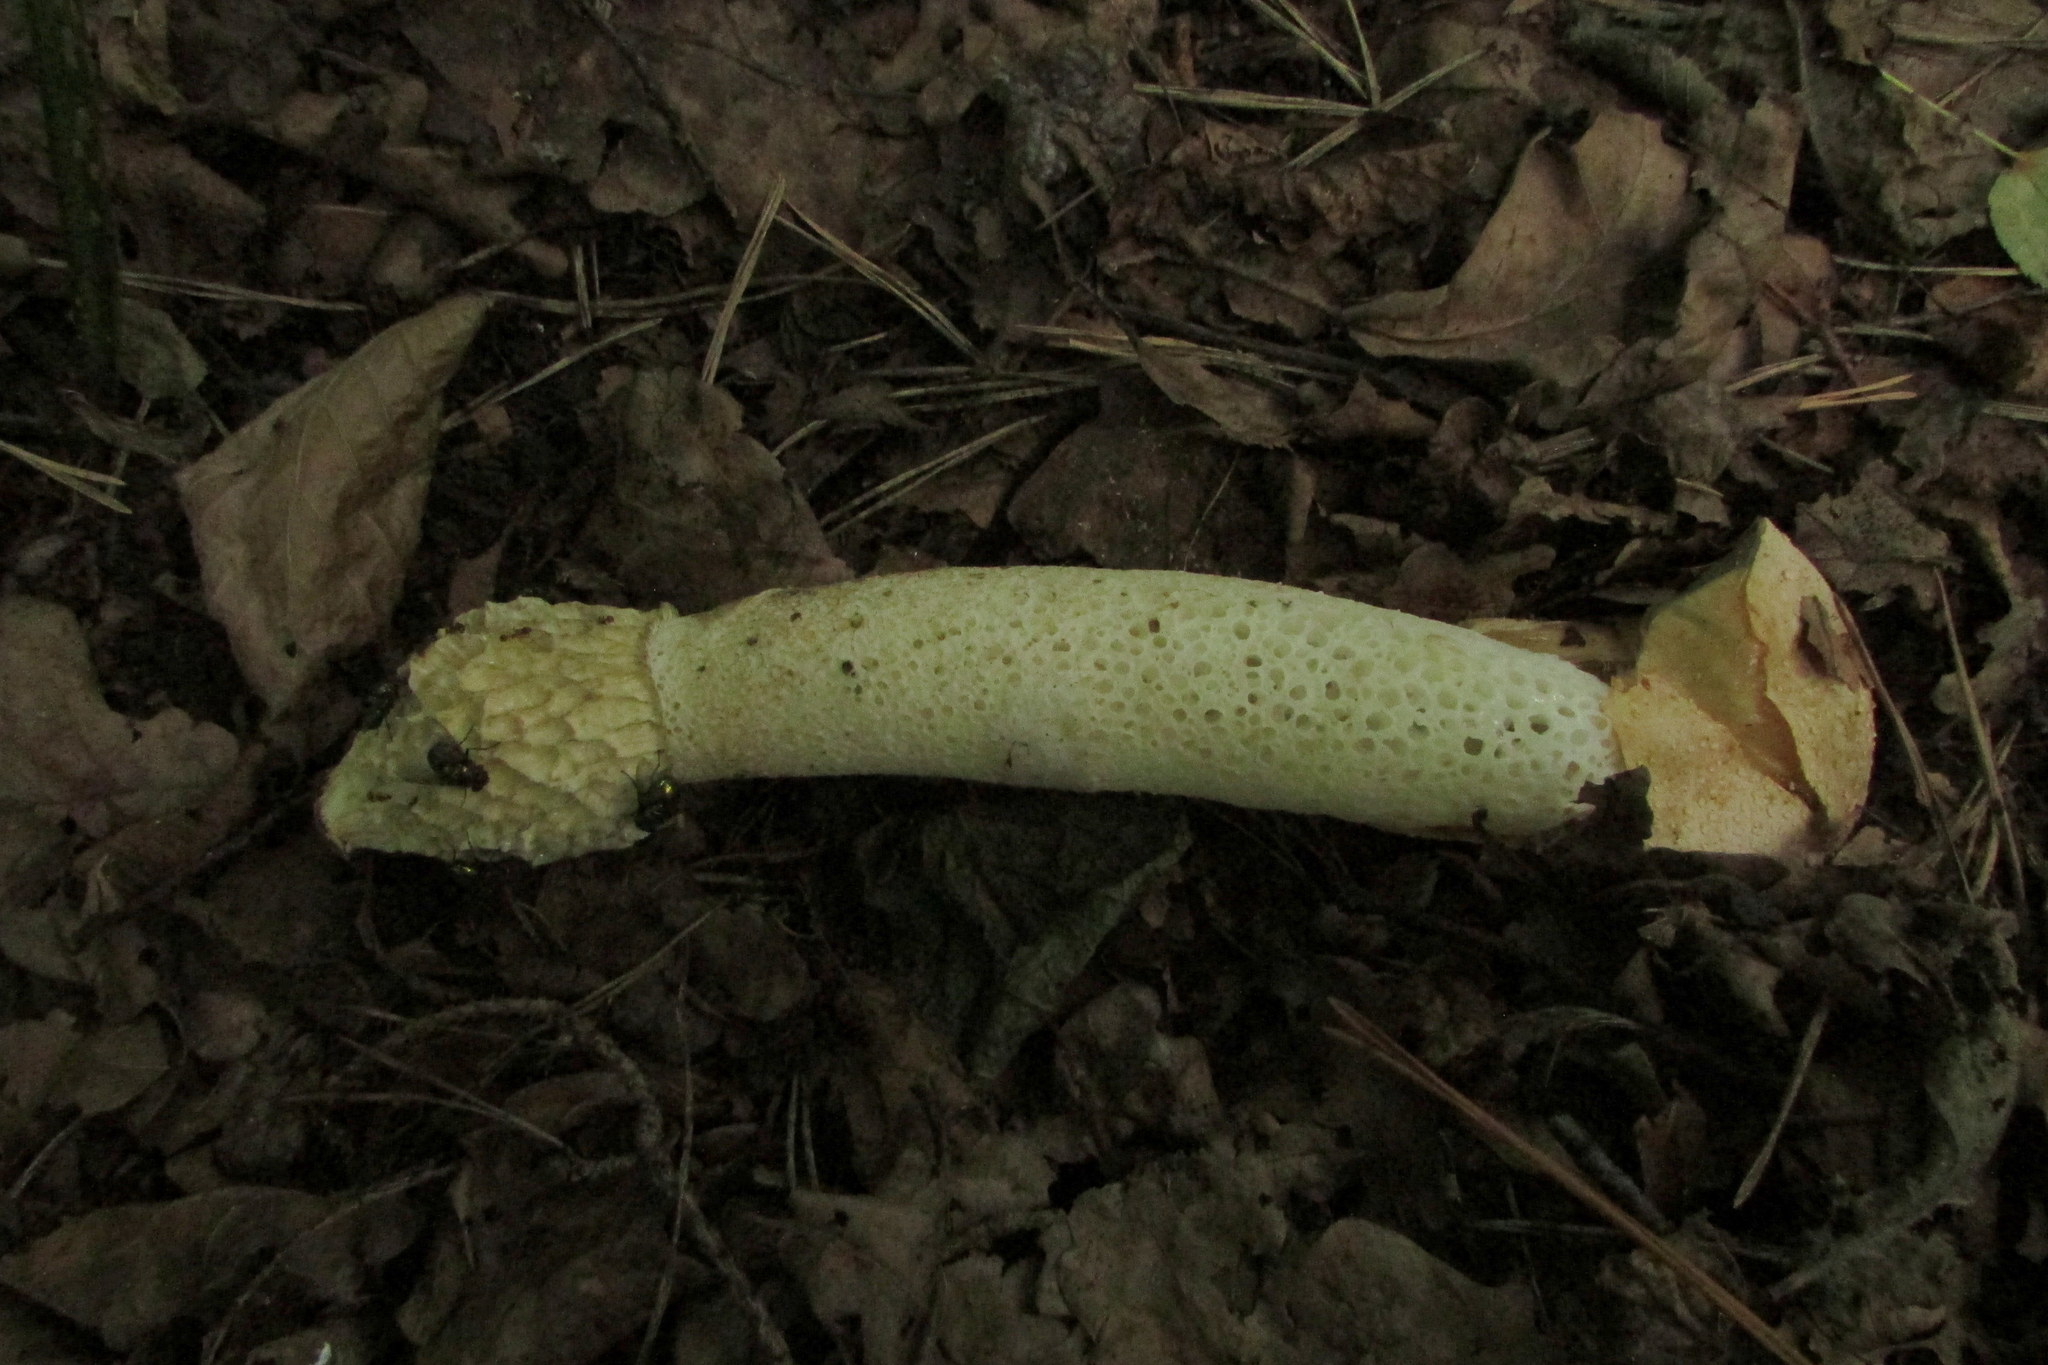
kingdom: Fungi
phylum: Basidiomycota
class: Agaricomycetes
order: Phallales
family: Phallaceae
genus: Phallus
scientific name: Phallus impudicus
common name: Common stinkhorn
